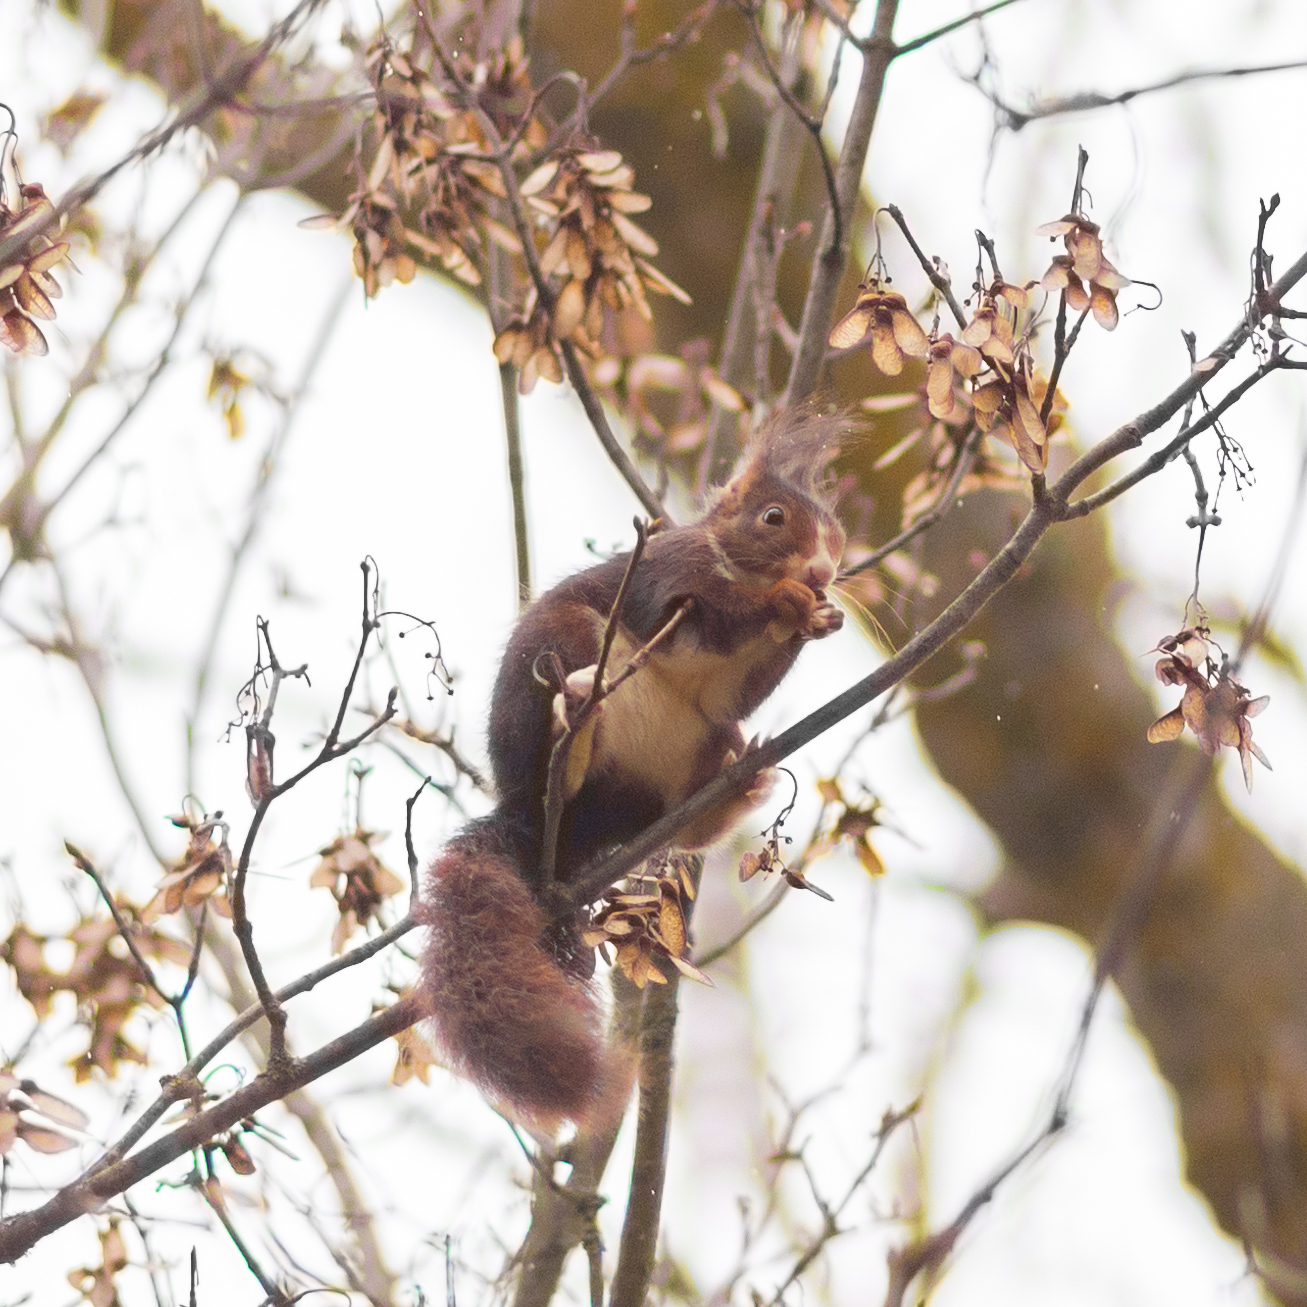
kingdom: Animalia
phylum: Chordata
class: Mammalia
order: Rodentia
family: Sciuridae
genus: Sciurus
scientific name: Sciurus vulgaris
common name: Eurasian red squirrel
